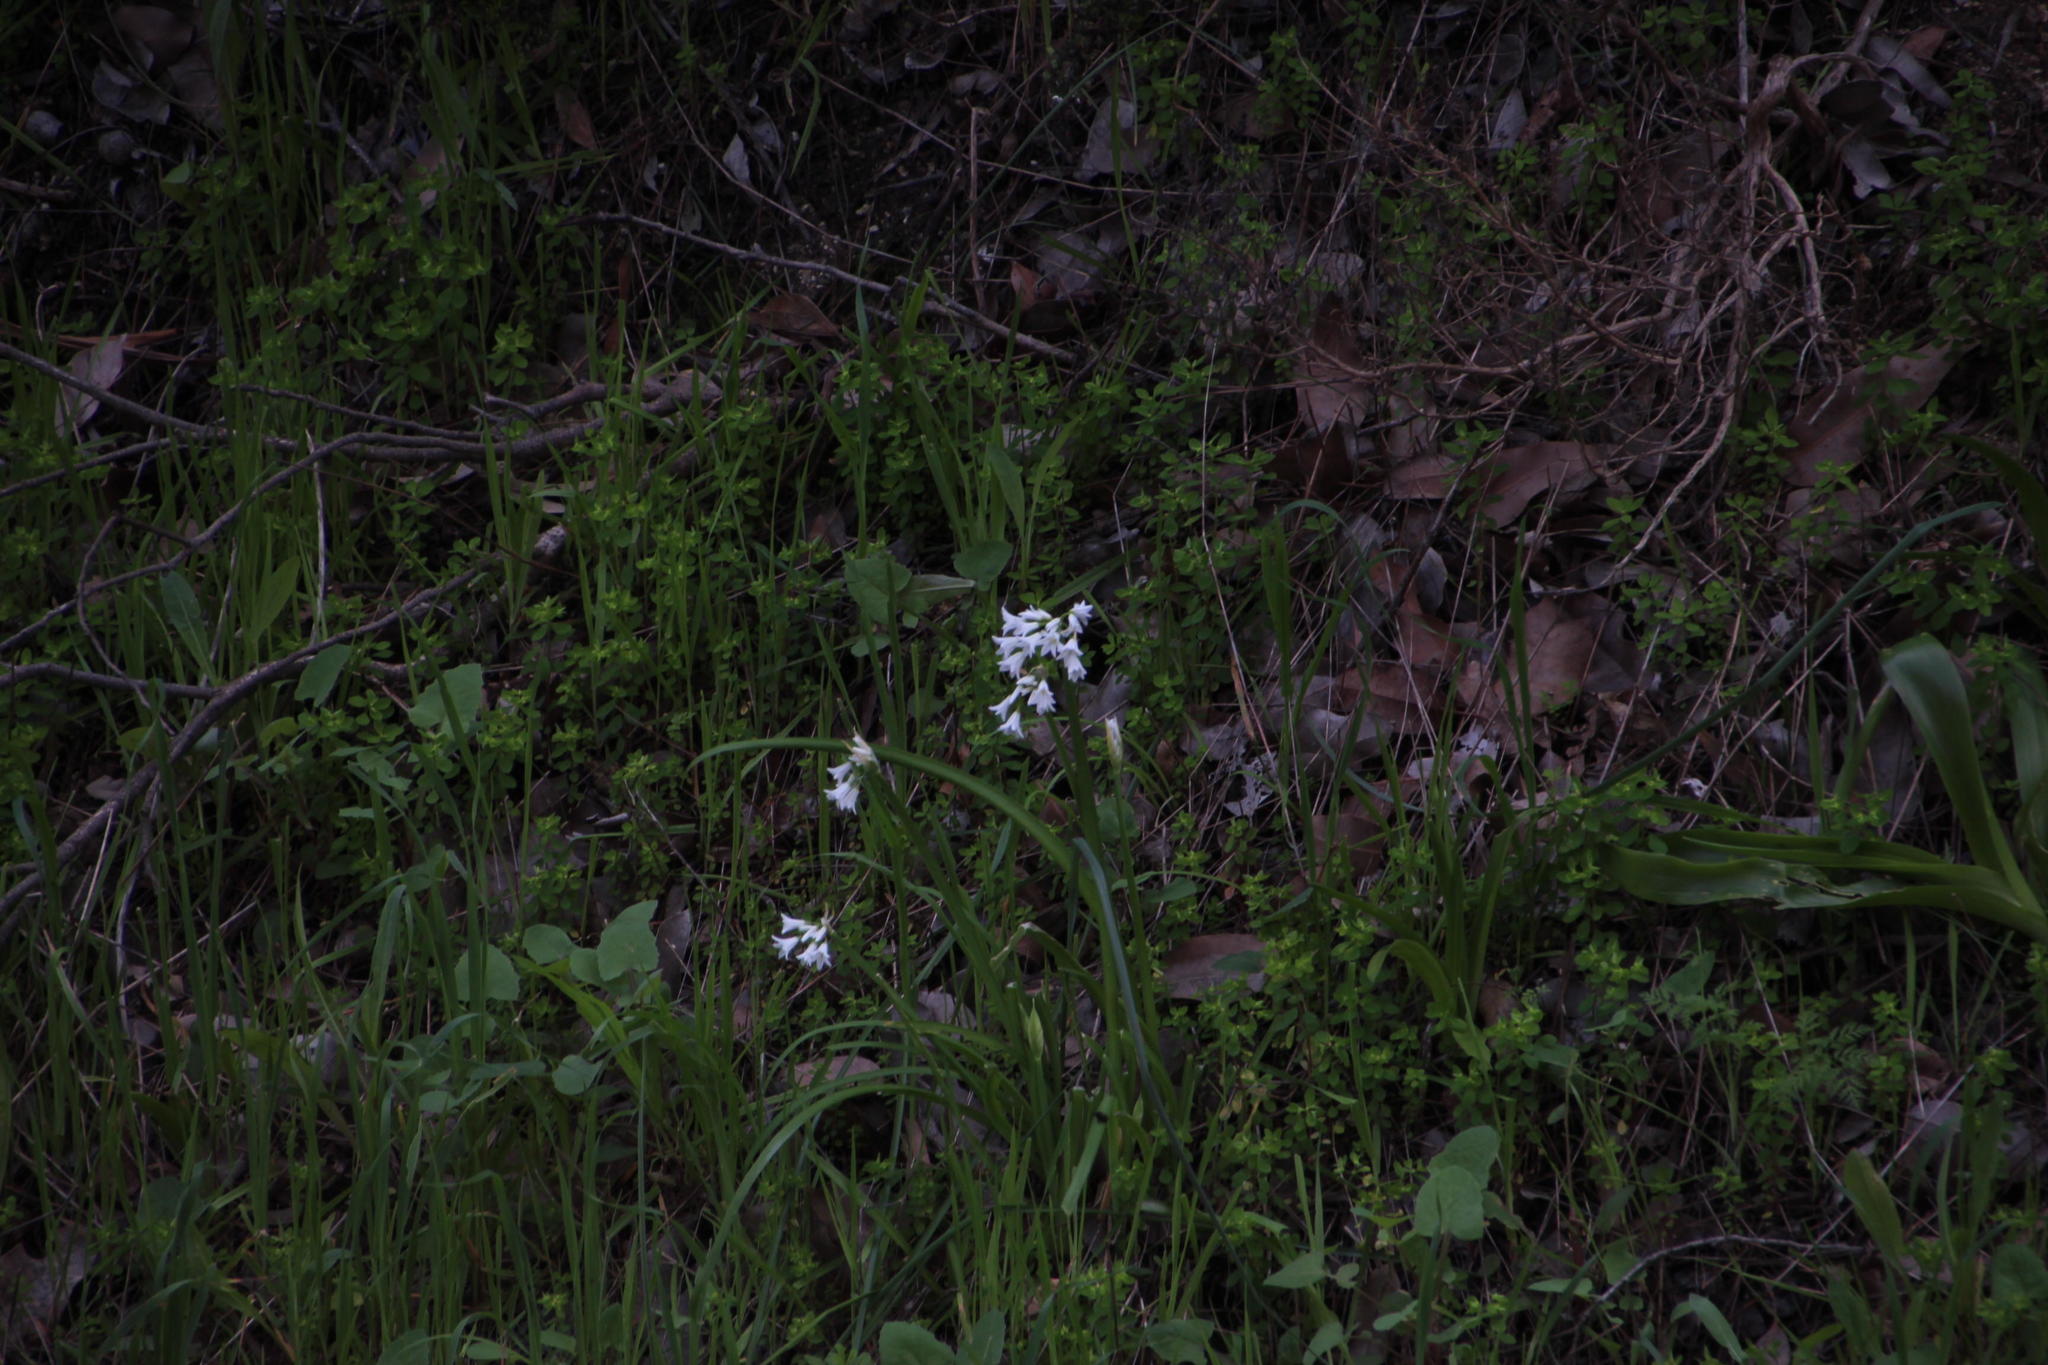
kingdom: Plantae
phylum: Tracheophyta
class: Liliopsida
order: Asparagales
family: Amaryllidaceae
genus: Allium
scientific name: Allium triquetrum
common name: Three-cornered garlic
